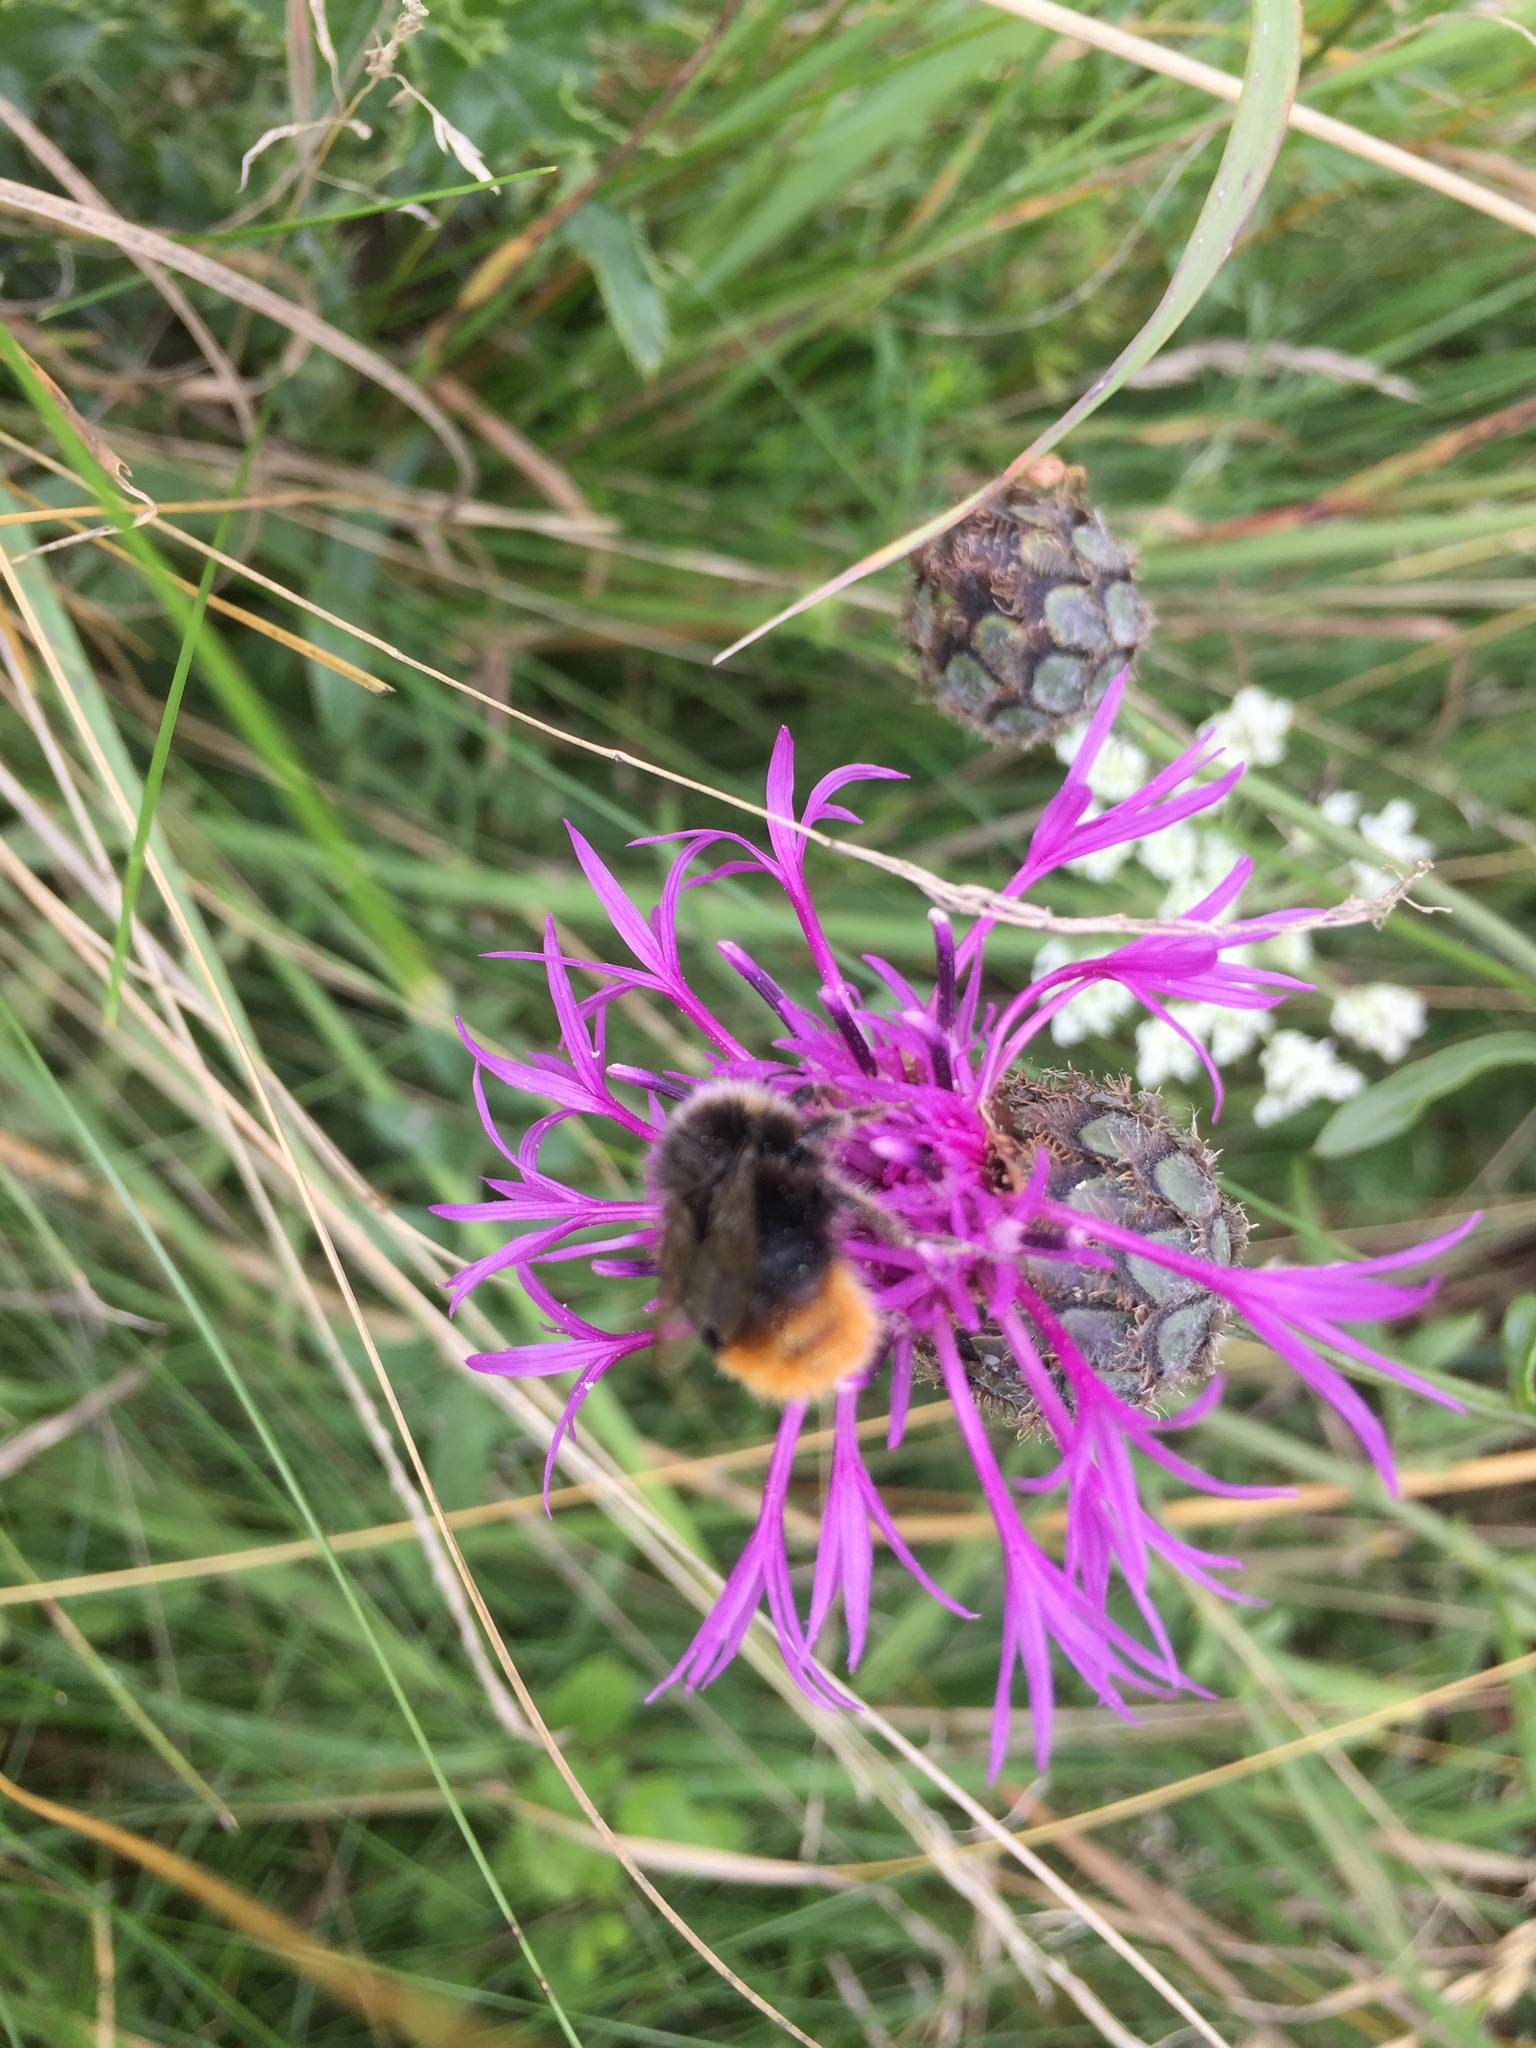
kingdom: Animalia
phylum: Arthropoda
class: Insecta
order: Hymenoptera
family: Apidae
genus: Bombus
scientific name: Bombus lapidarius
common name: Large red-tailed humble-bee
